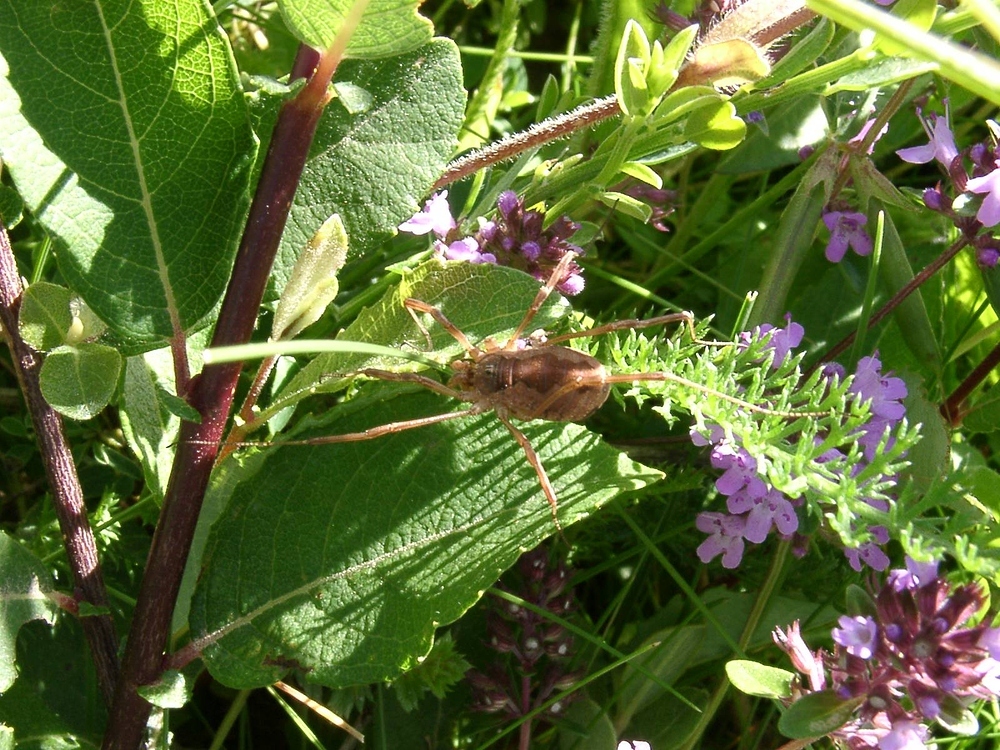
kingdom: Animalia
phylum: Arthropoda
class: Arachnida
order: Opiliones
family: Phalangiidae
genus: Mitopus
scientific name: Mitopus morio
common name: Saddleback harvestman
